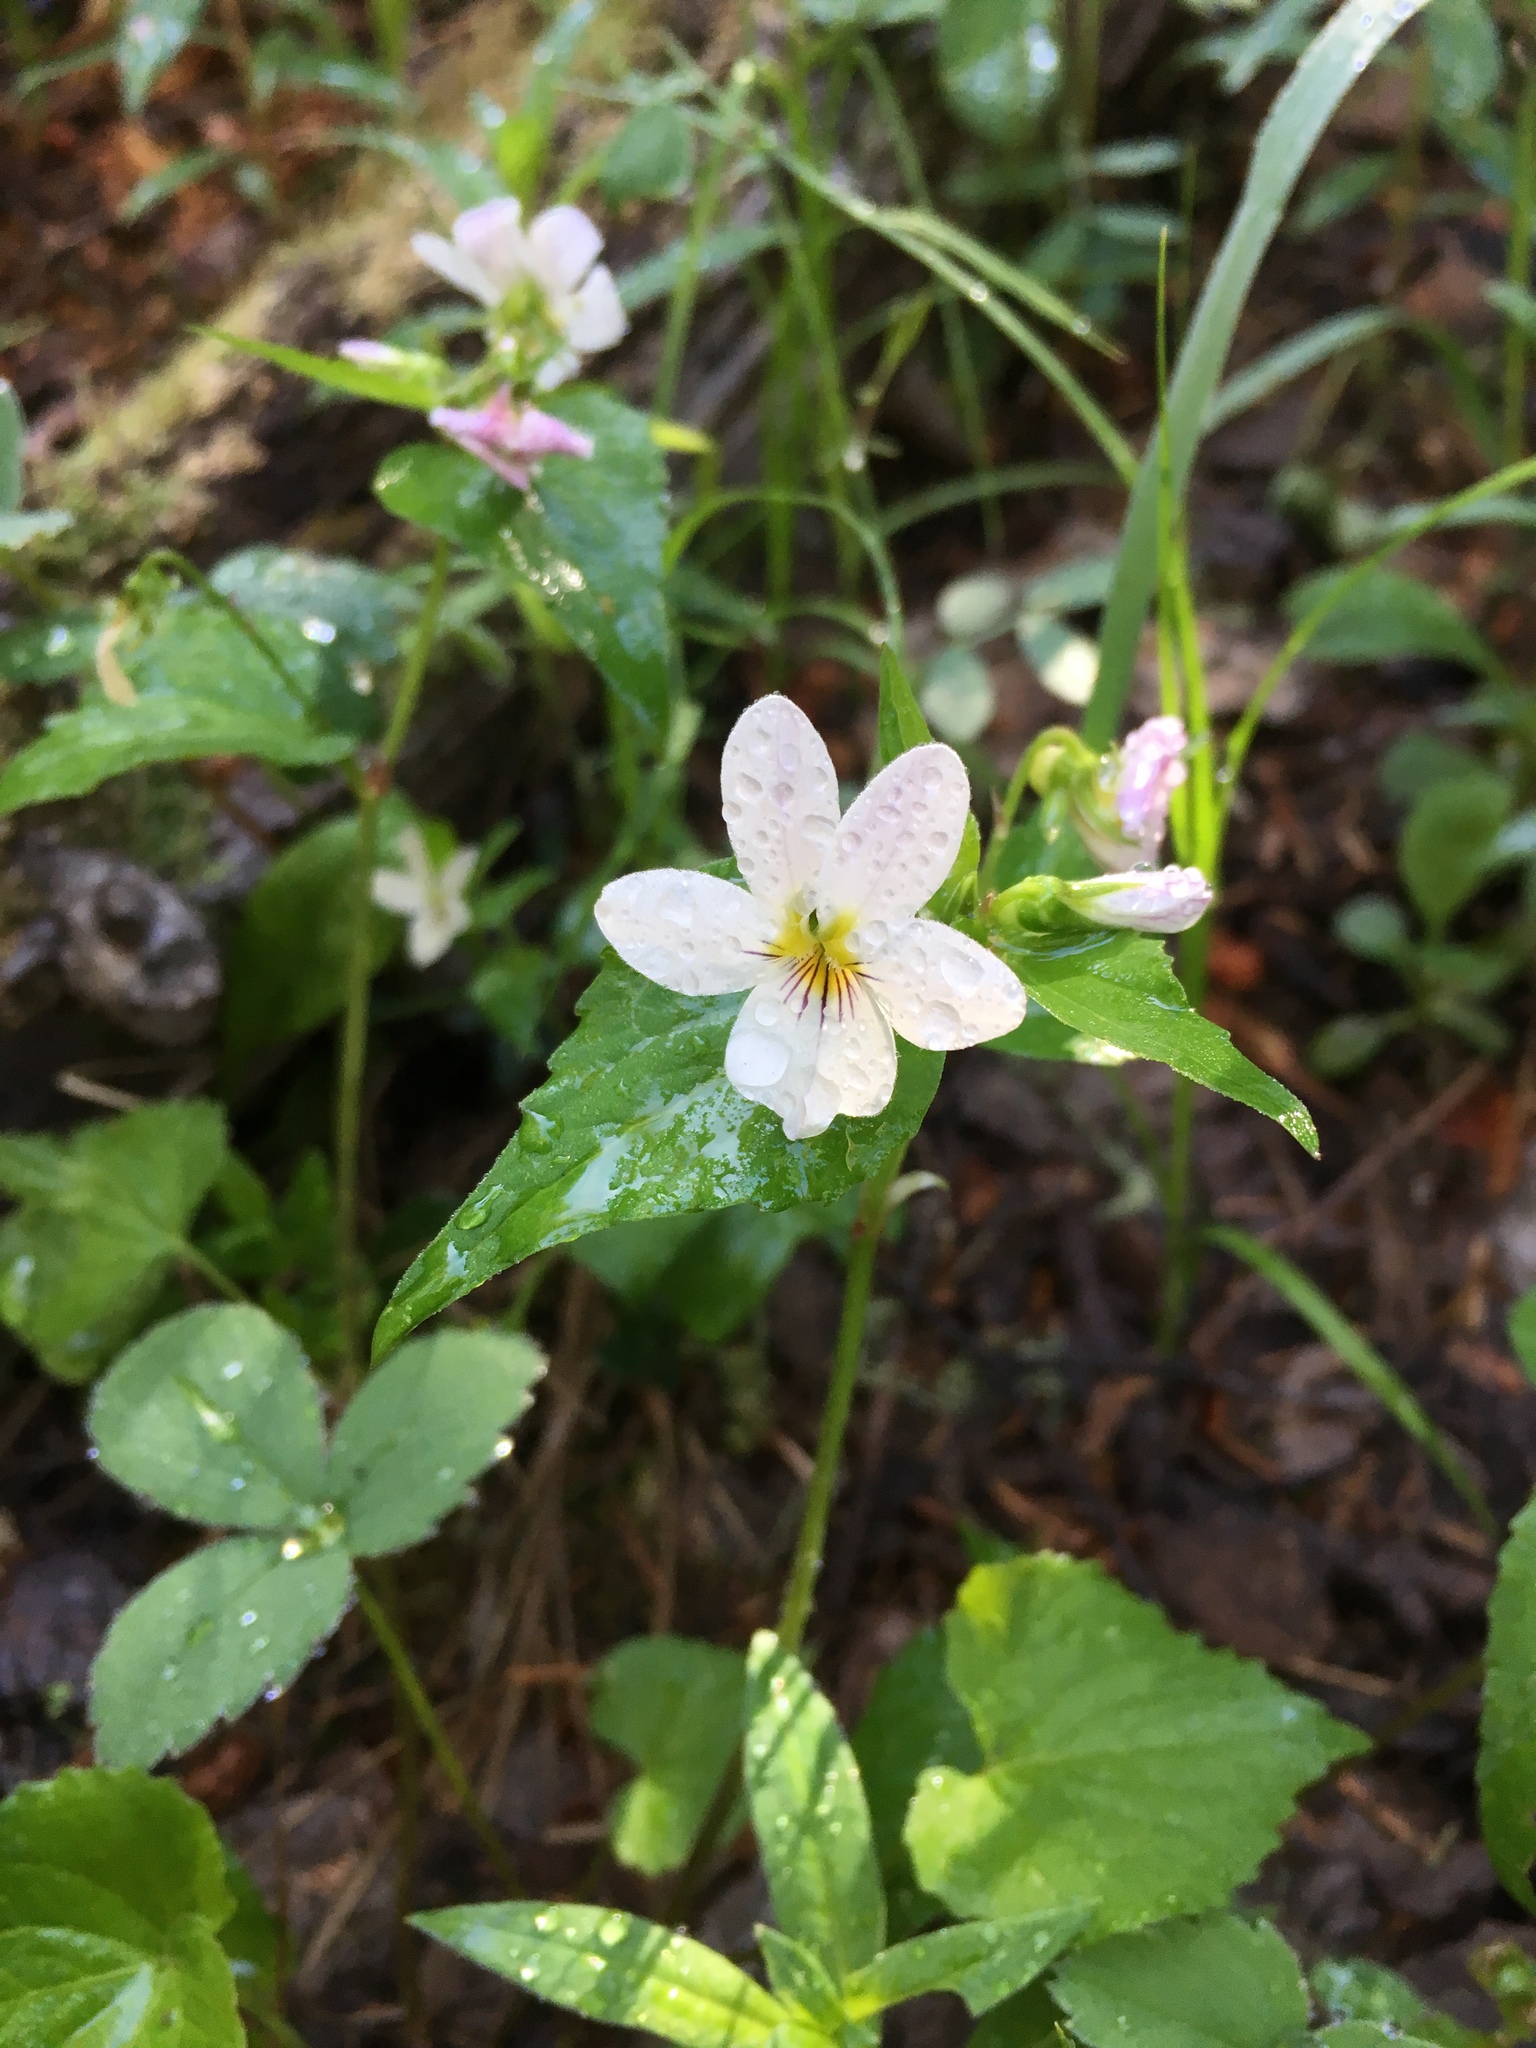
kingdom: Plantae
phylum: Tracheophyta
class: Magnoliopsida
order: Malpighiales
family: Violaceae
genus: Viola
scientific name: Viola canadensis
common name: Canada violet
